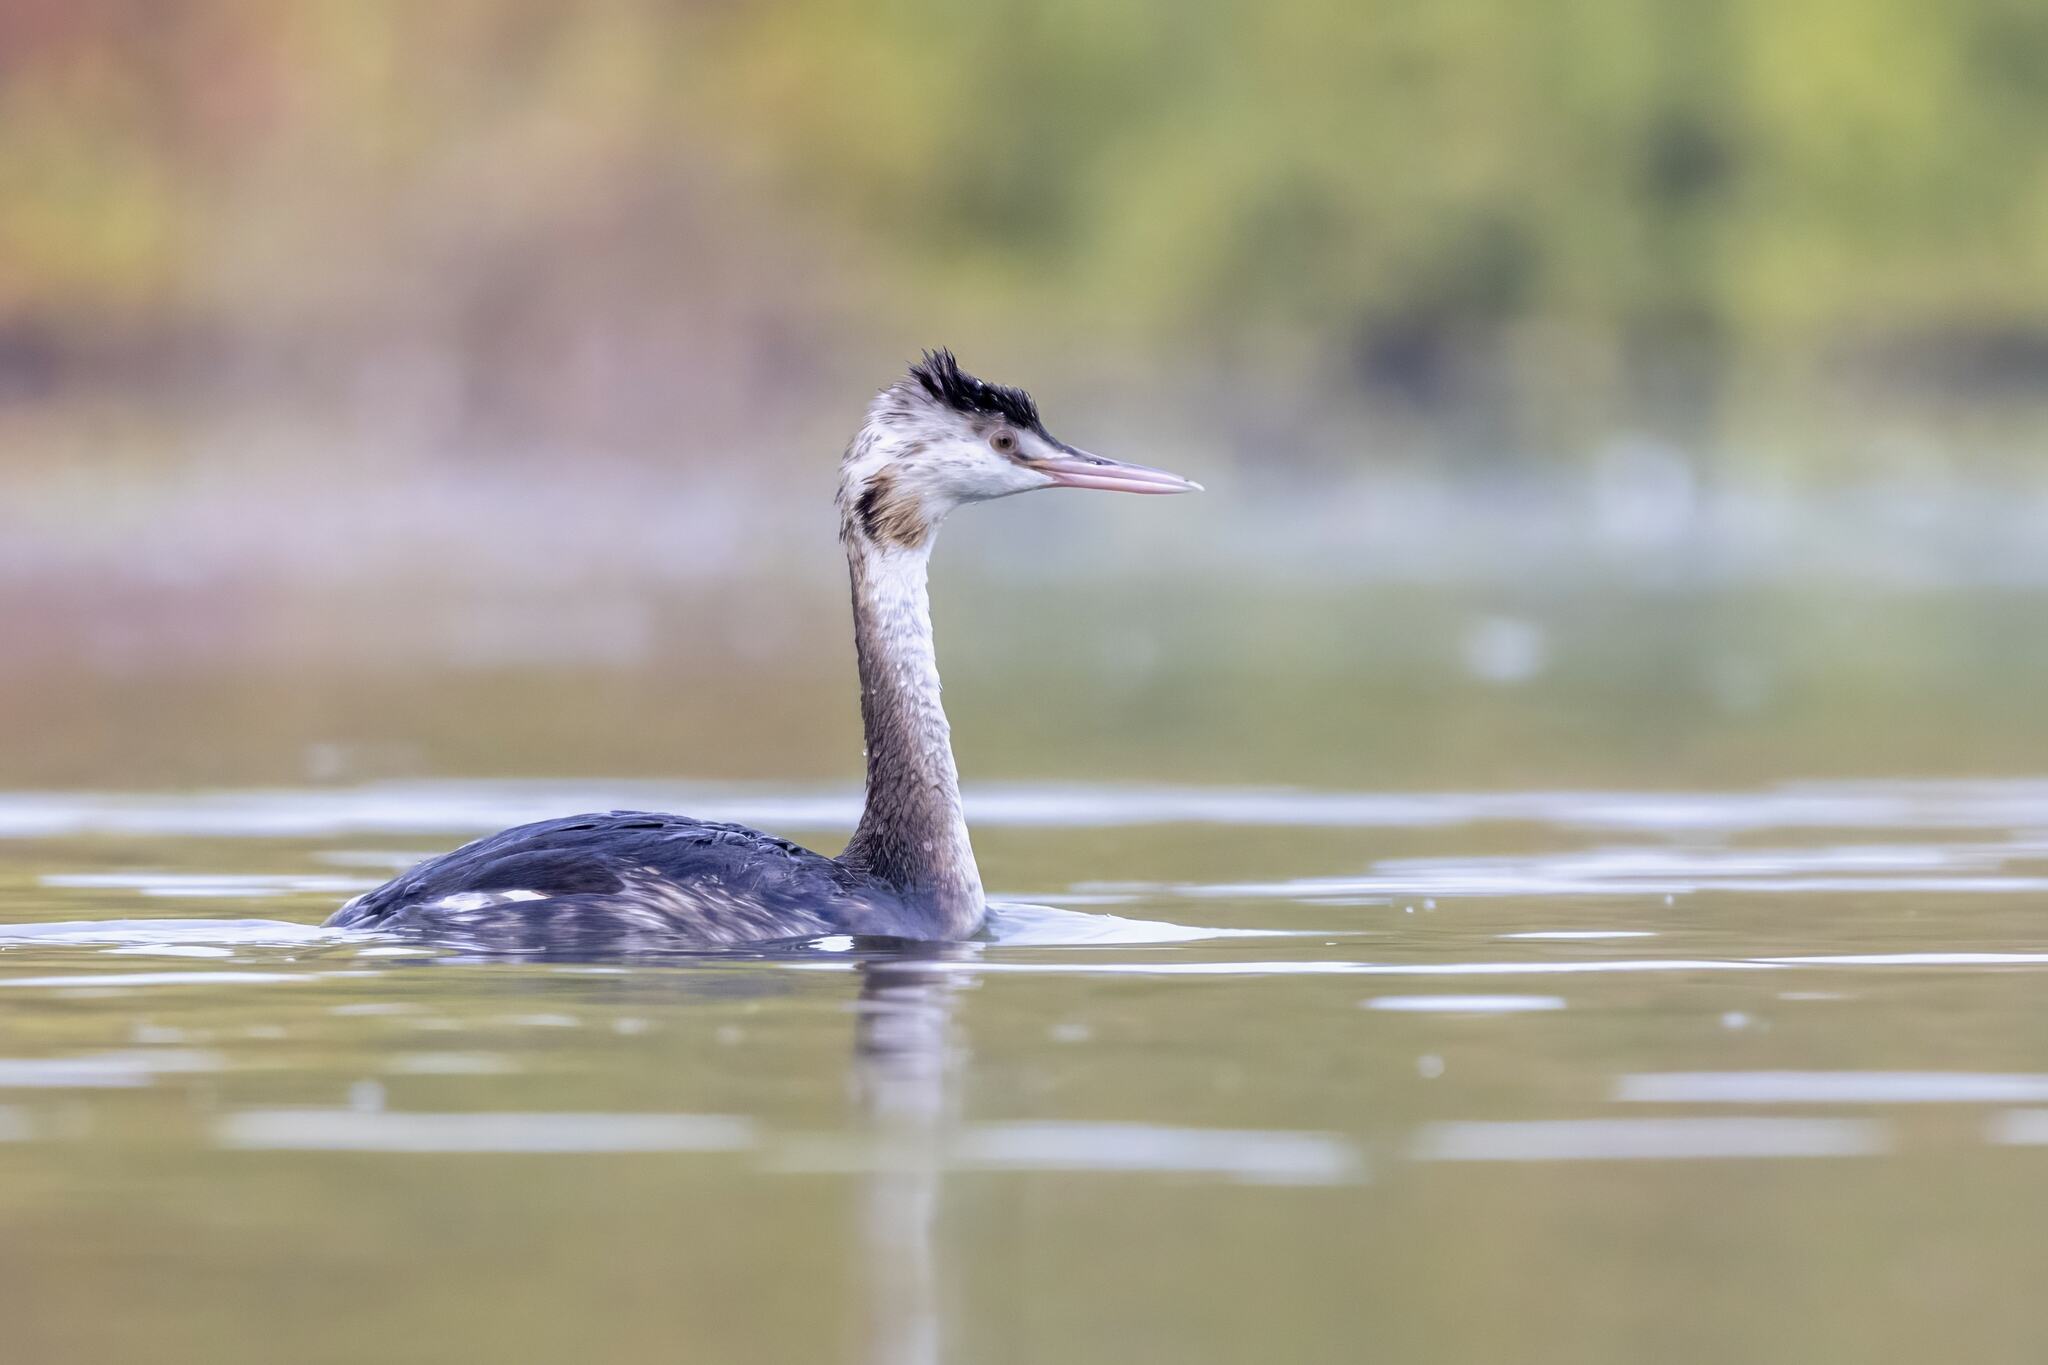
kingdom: Animalia
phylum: Chordata
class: Aves
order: Podicipediformes
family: Podicipedidae
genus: Podiceps
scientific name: Podiceps cristatus
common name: Great crested grebe
